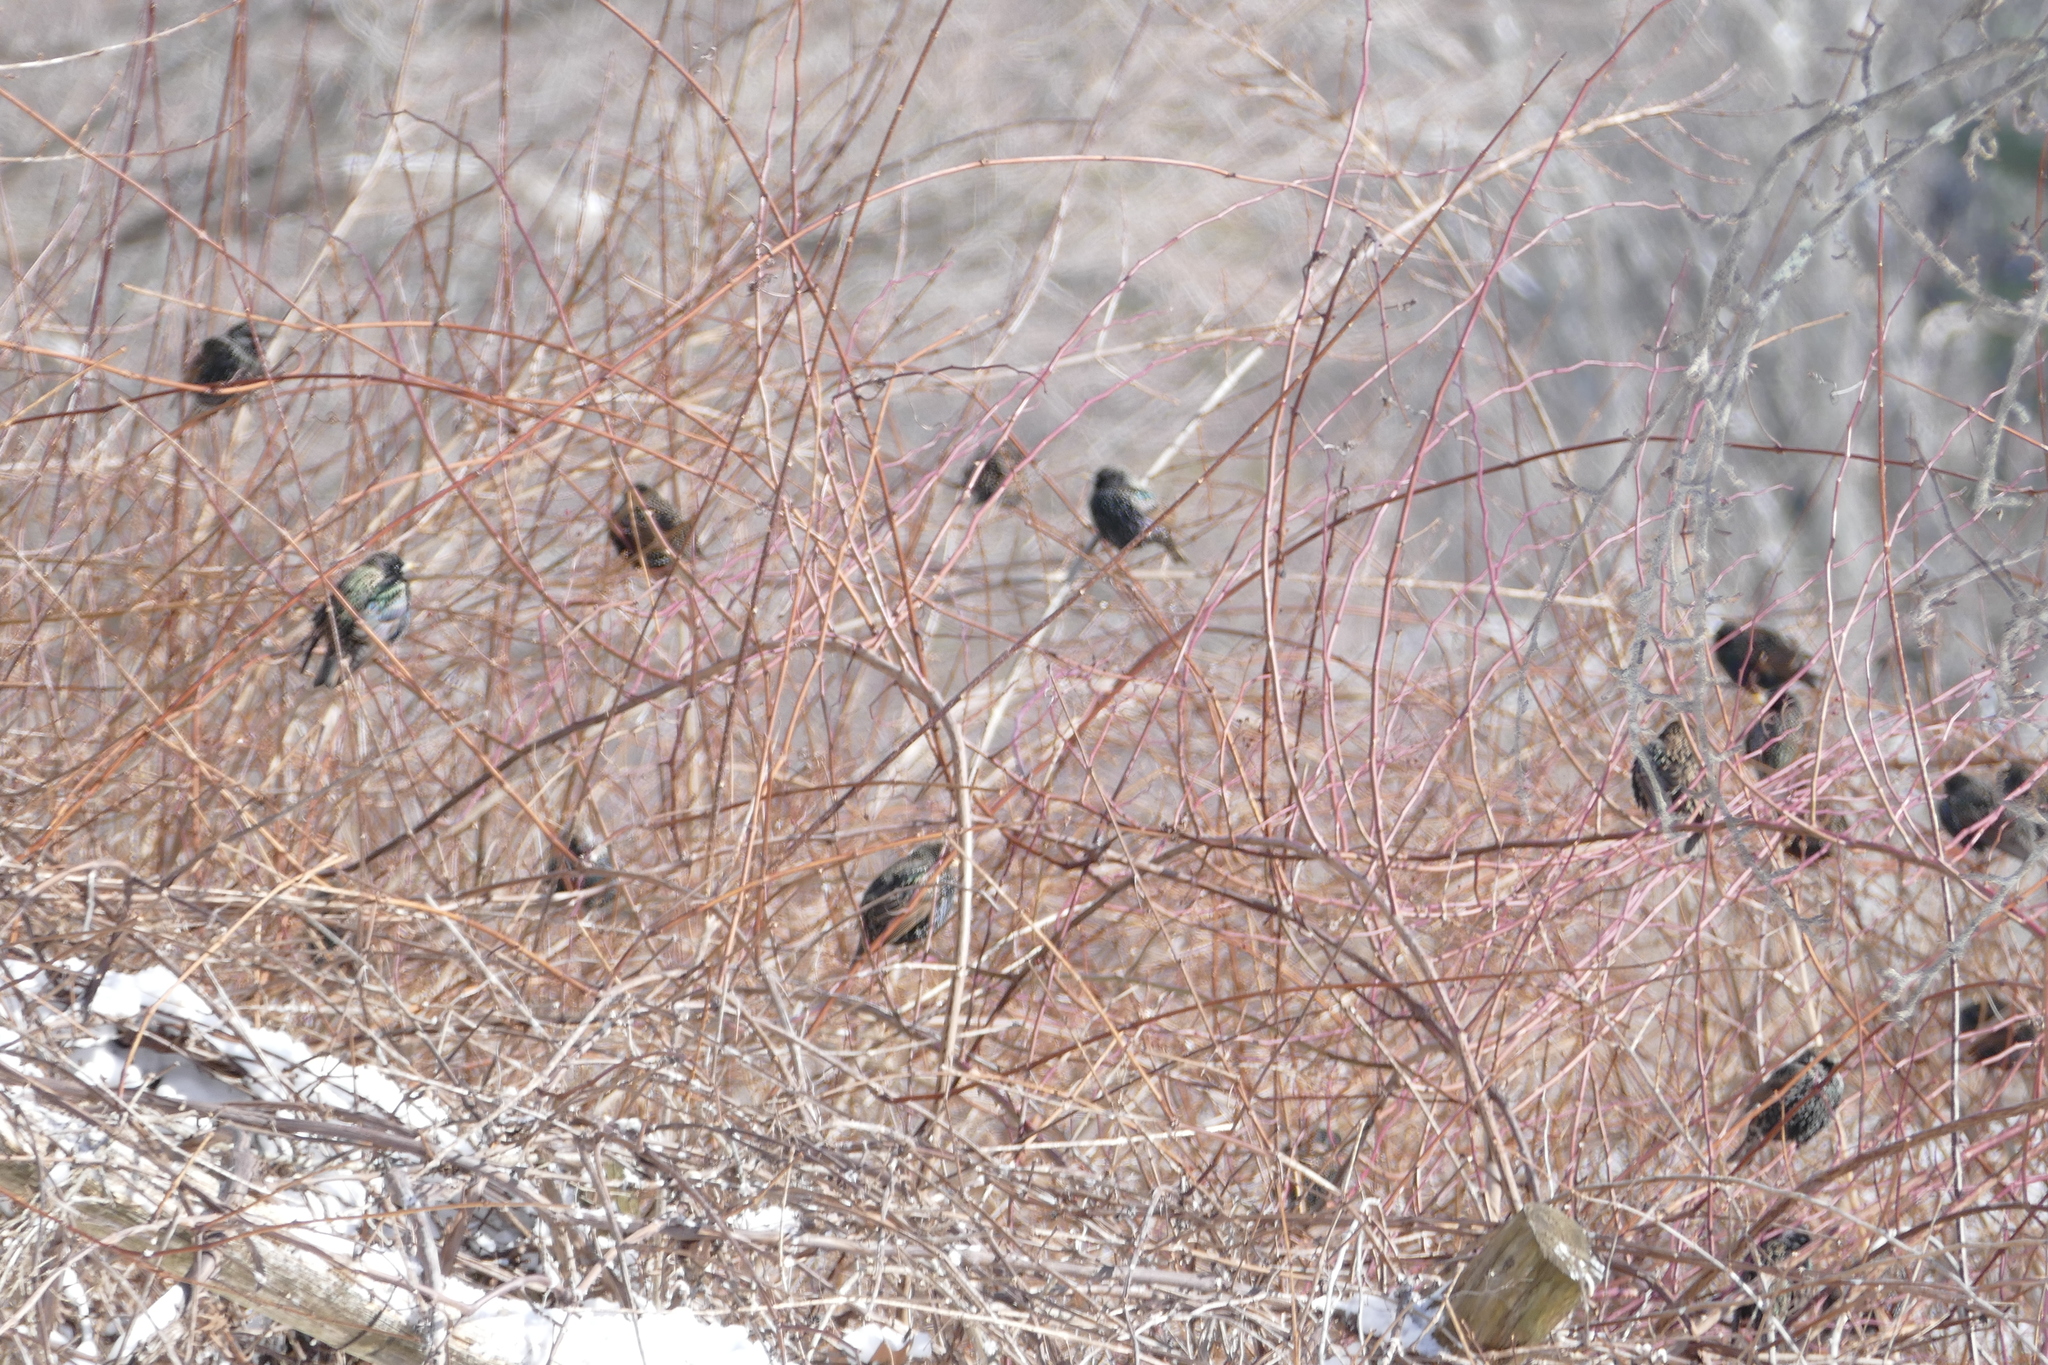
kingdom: Animalia
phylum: Chordata
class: Aves
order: Passeriformes
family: Sturnidae
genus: Sturnus
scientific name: Sturnus vulgaris
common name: Common starling
